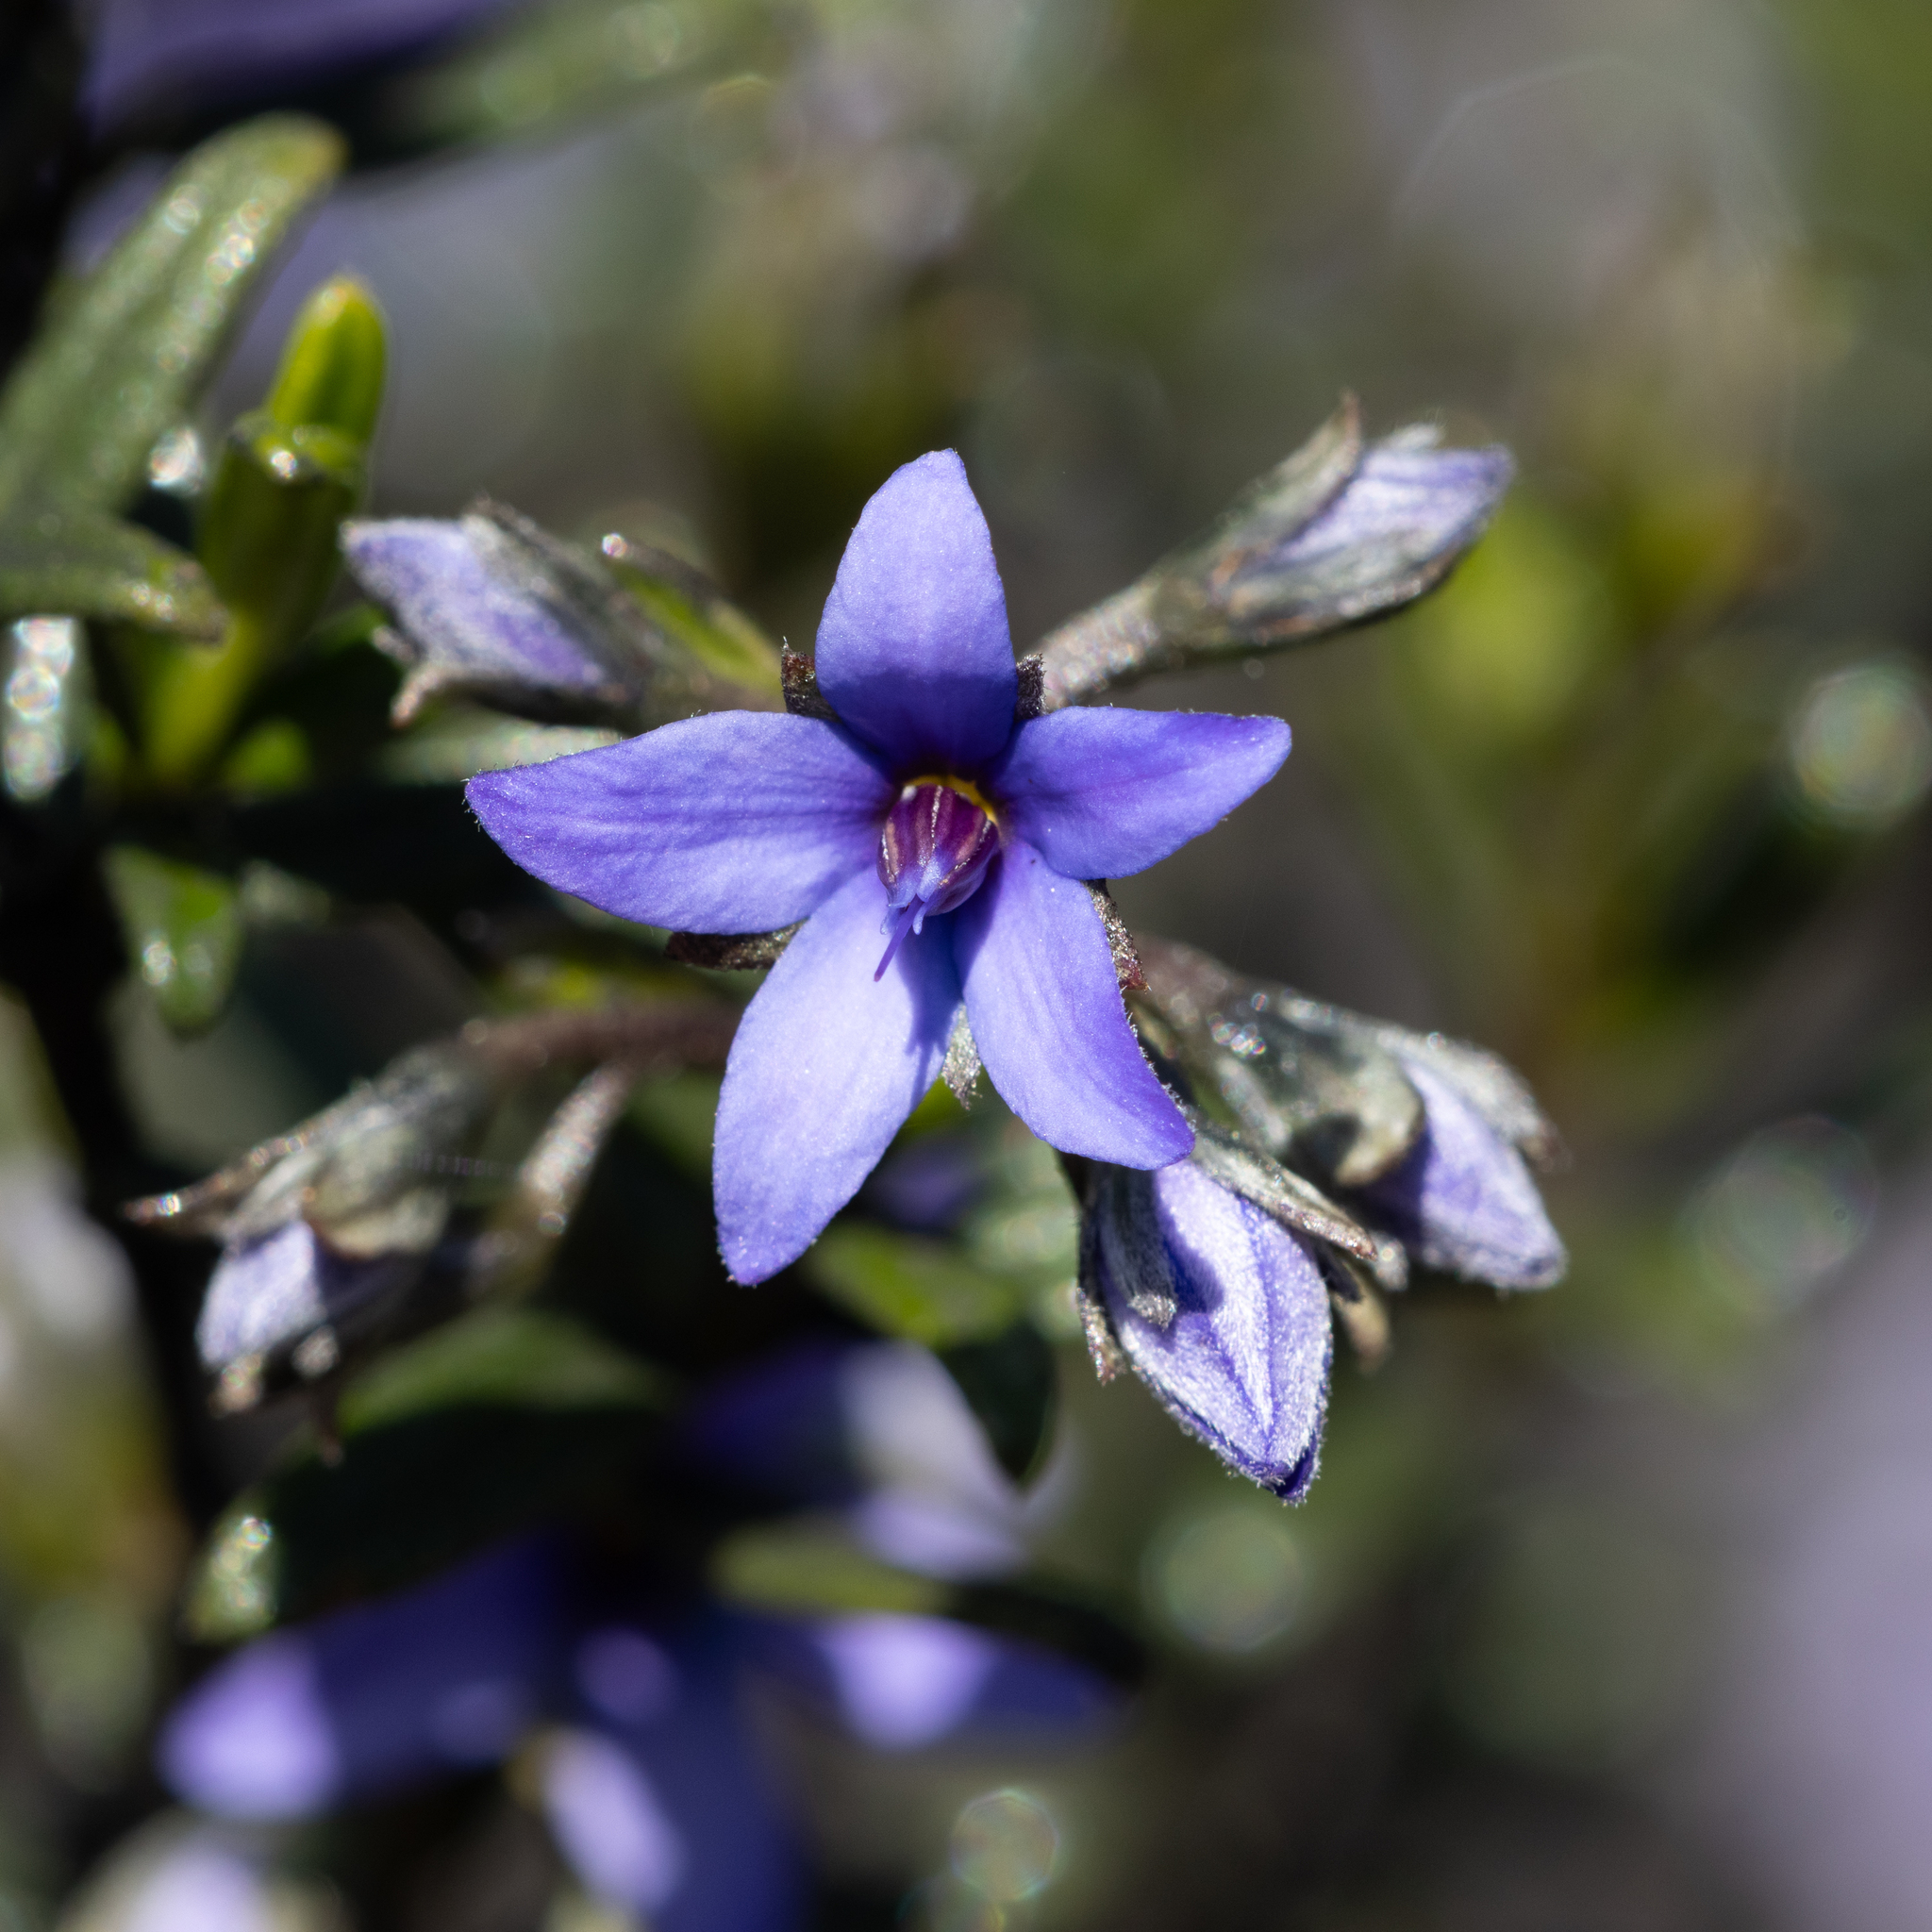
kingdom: Plantae
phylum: Tracheophyta
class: Magnoliopsida
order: Boraginales
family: Ehretiaceae
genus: Halgania
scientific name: Halgania andromedifolia
